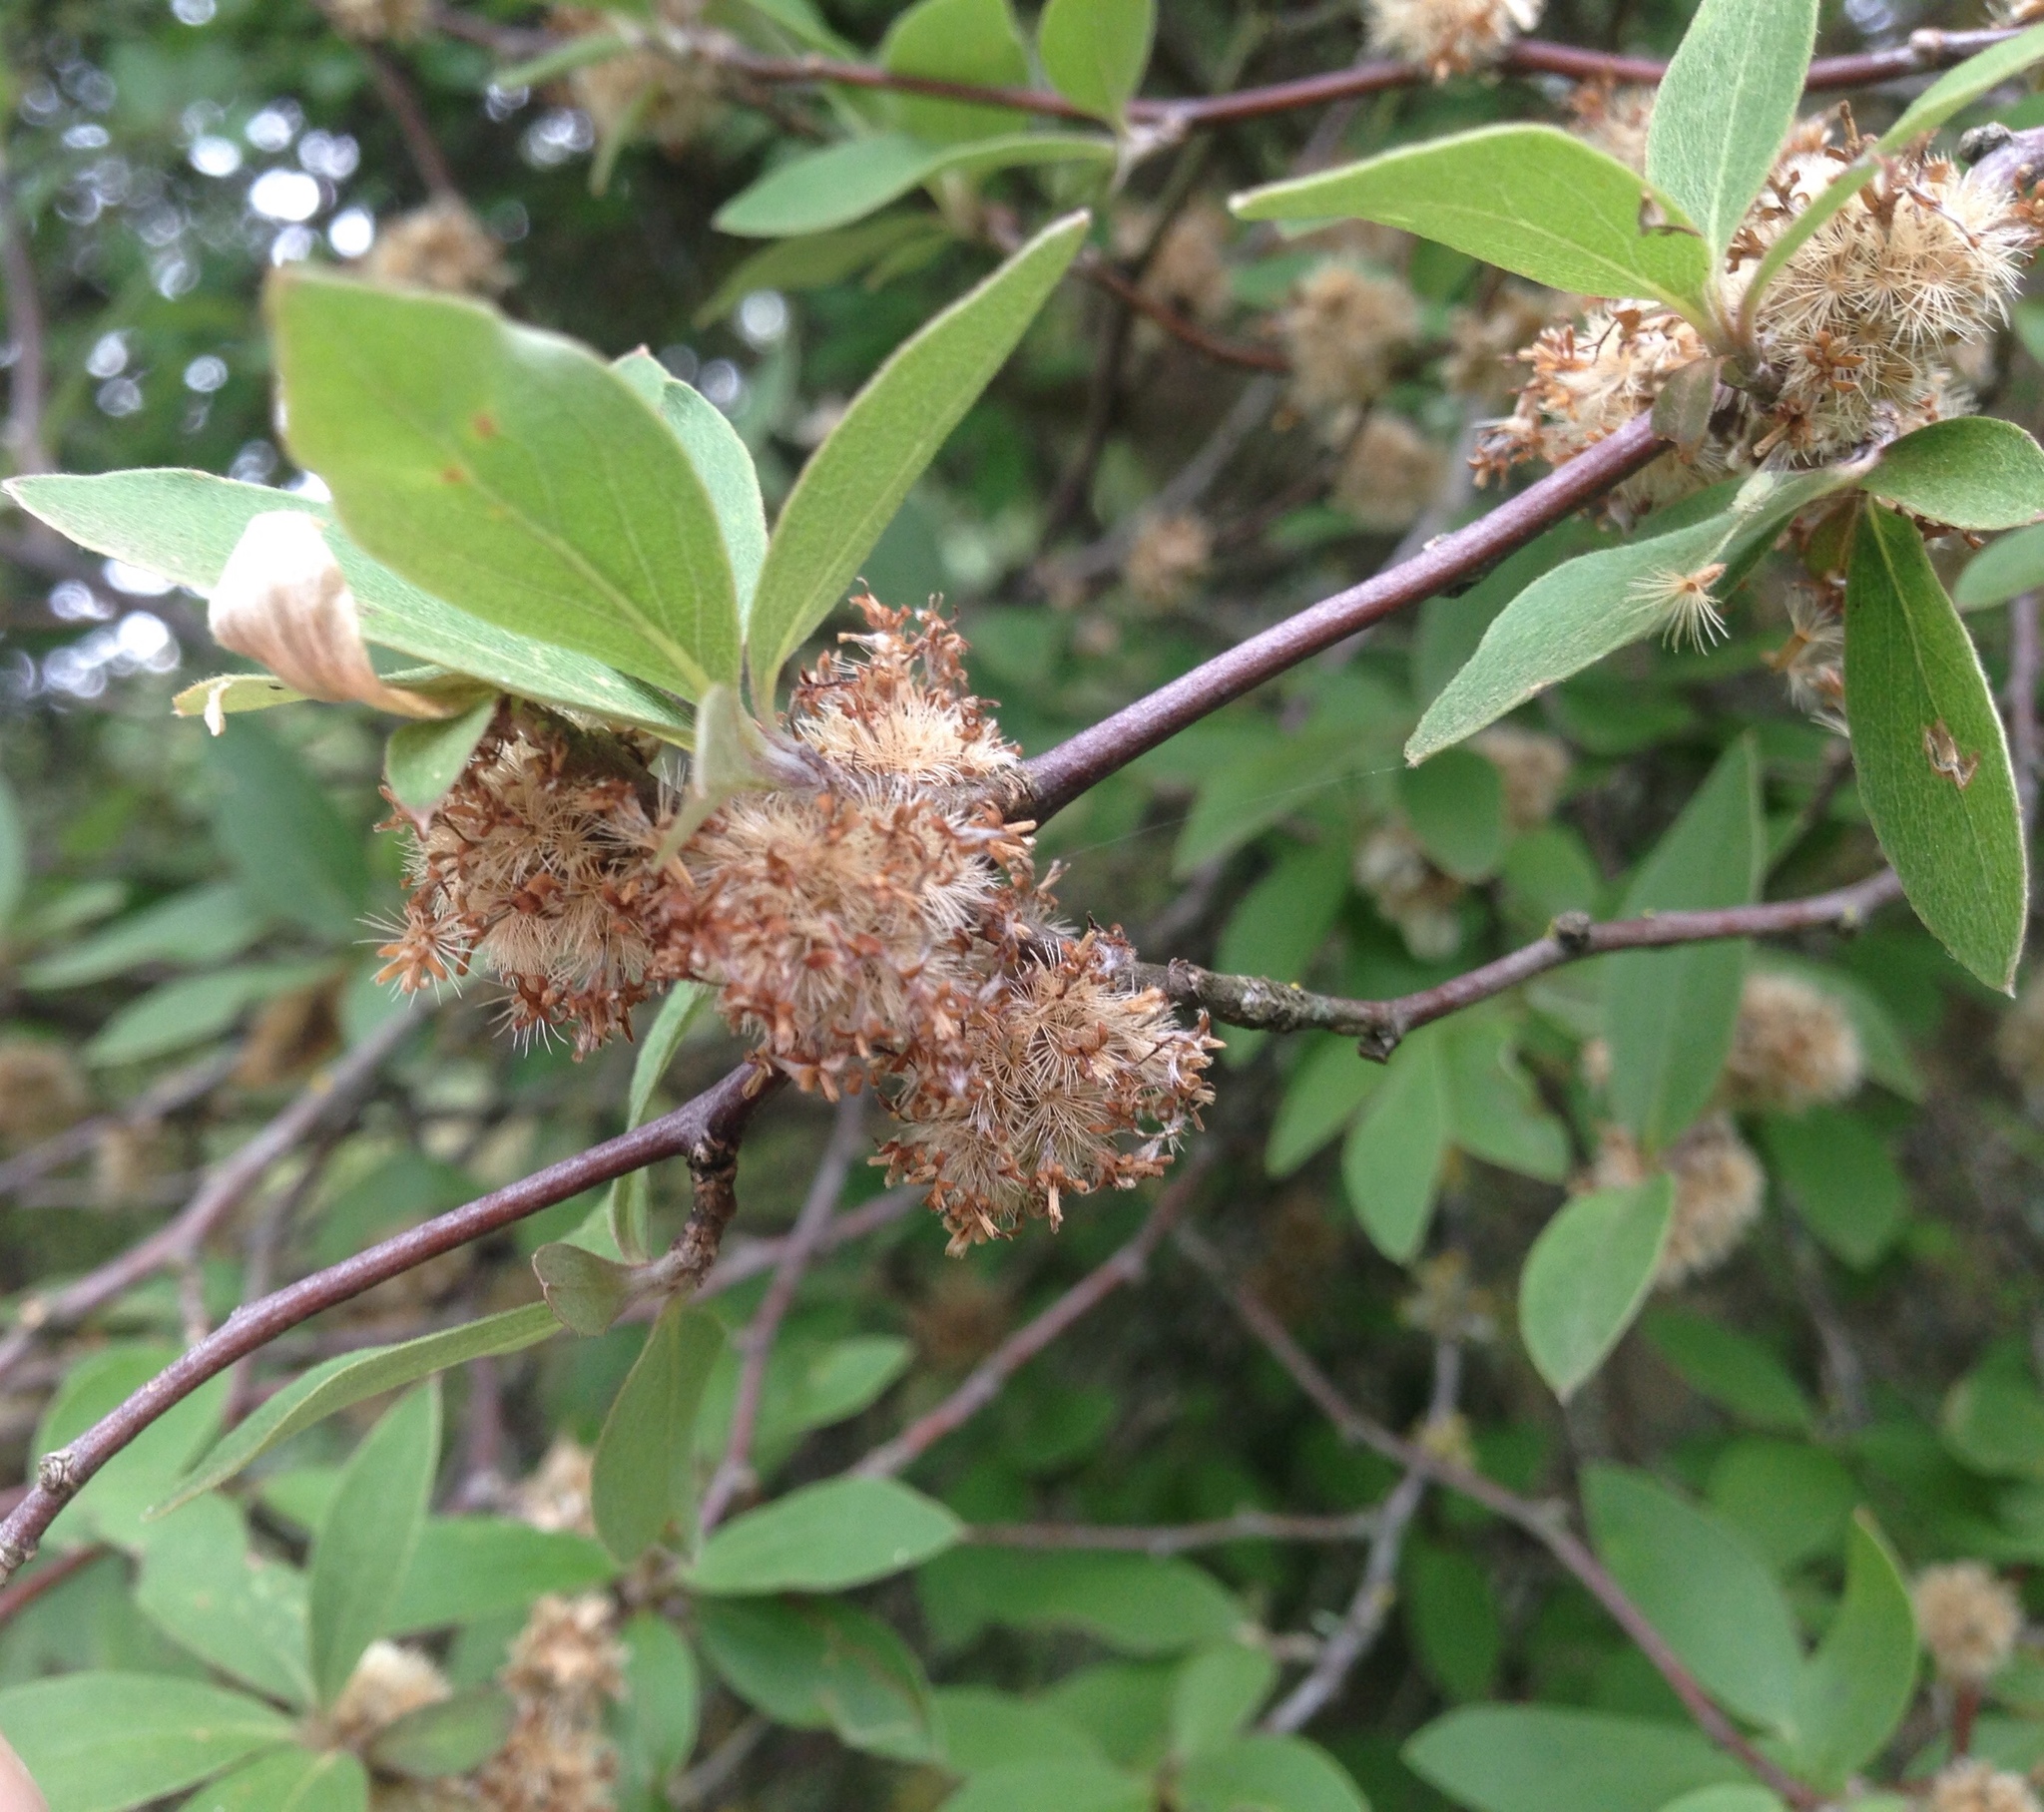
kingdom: Plantae
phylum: Tracheophyta
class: Magnoliopsida
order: Asterales
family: Asteraceae
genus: Olearia
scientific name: Olearia fragrantissima
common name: Fragrant tree daisy
